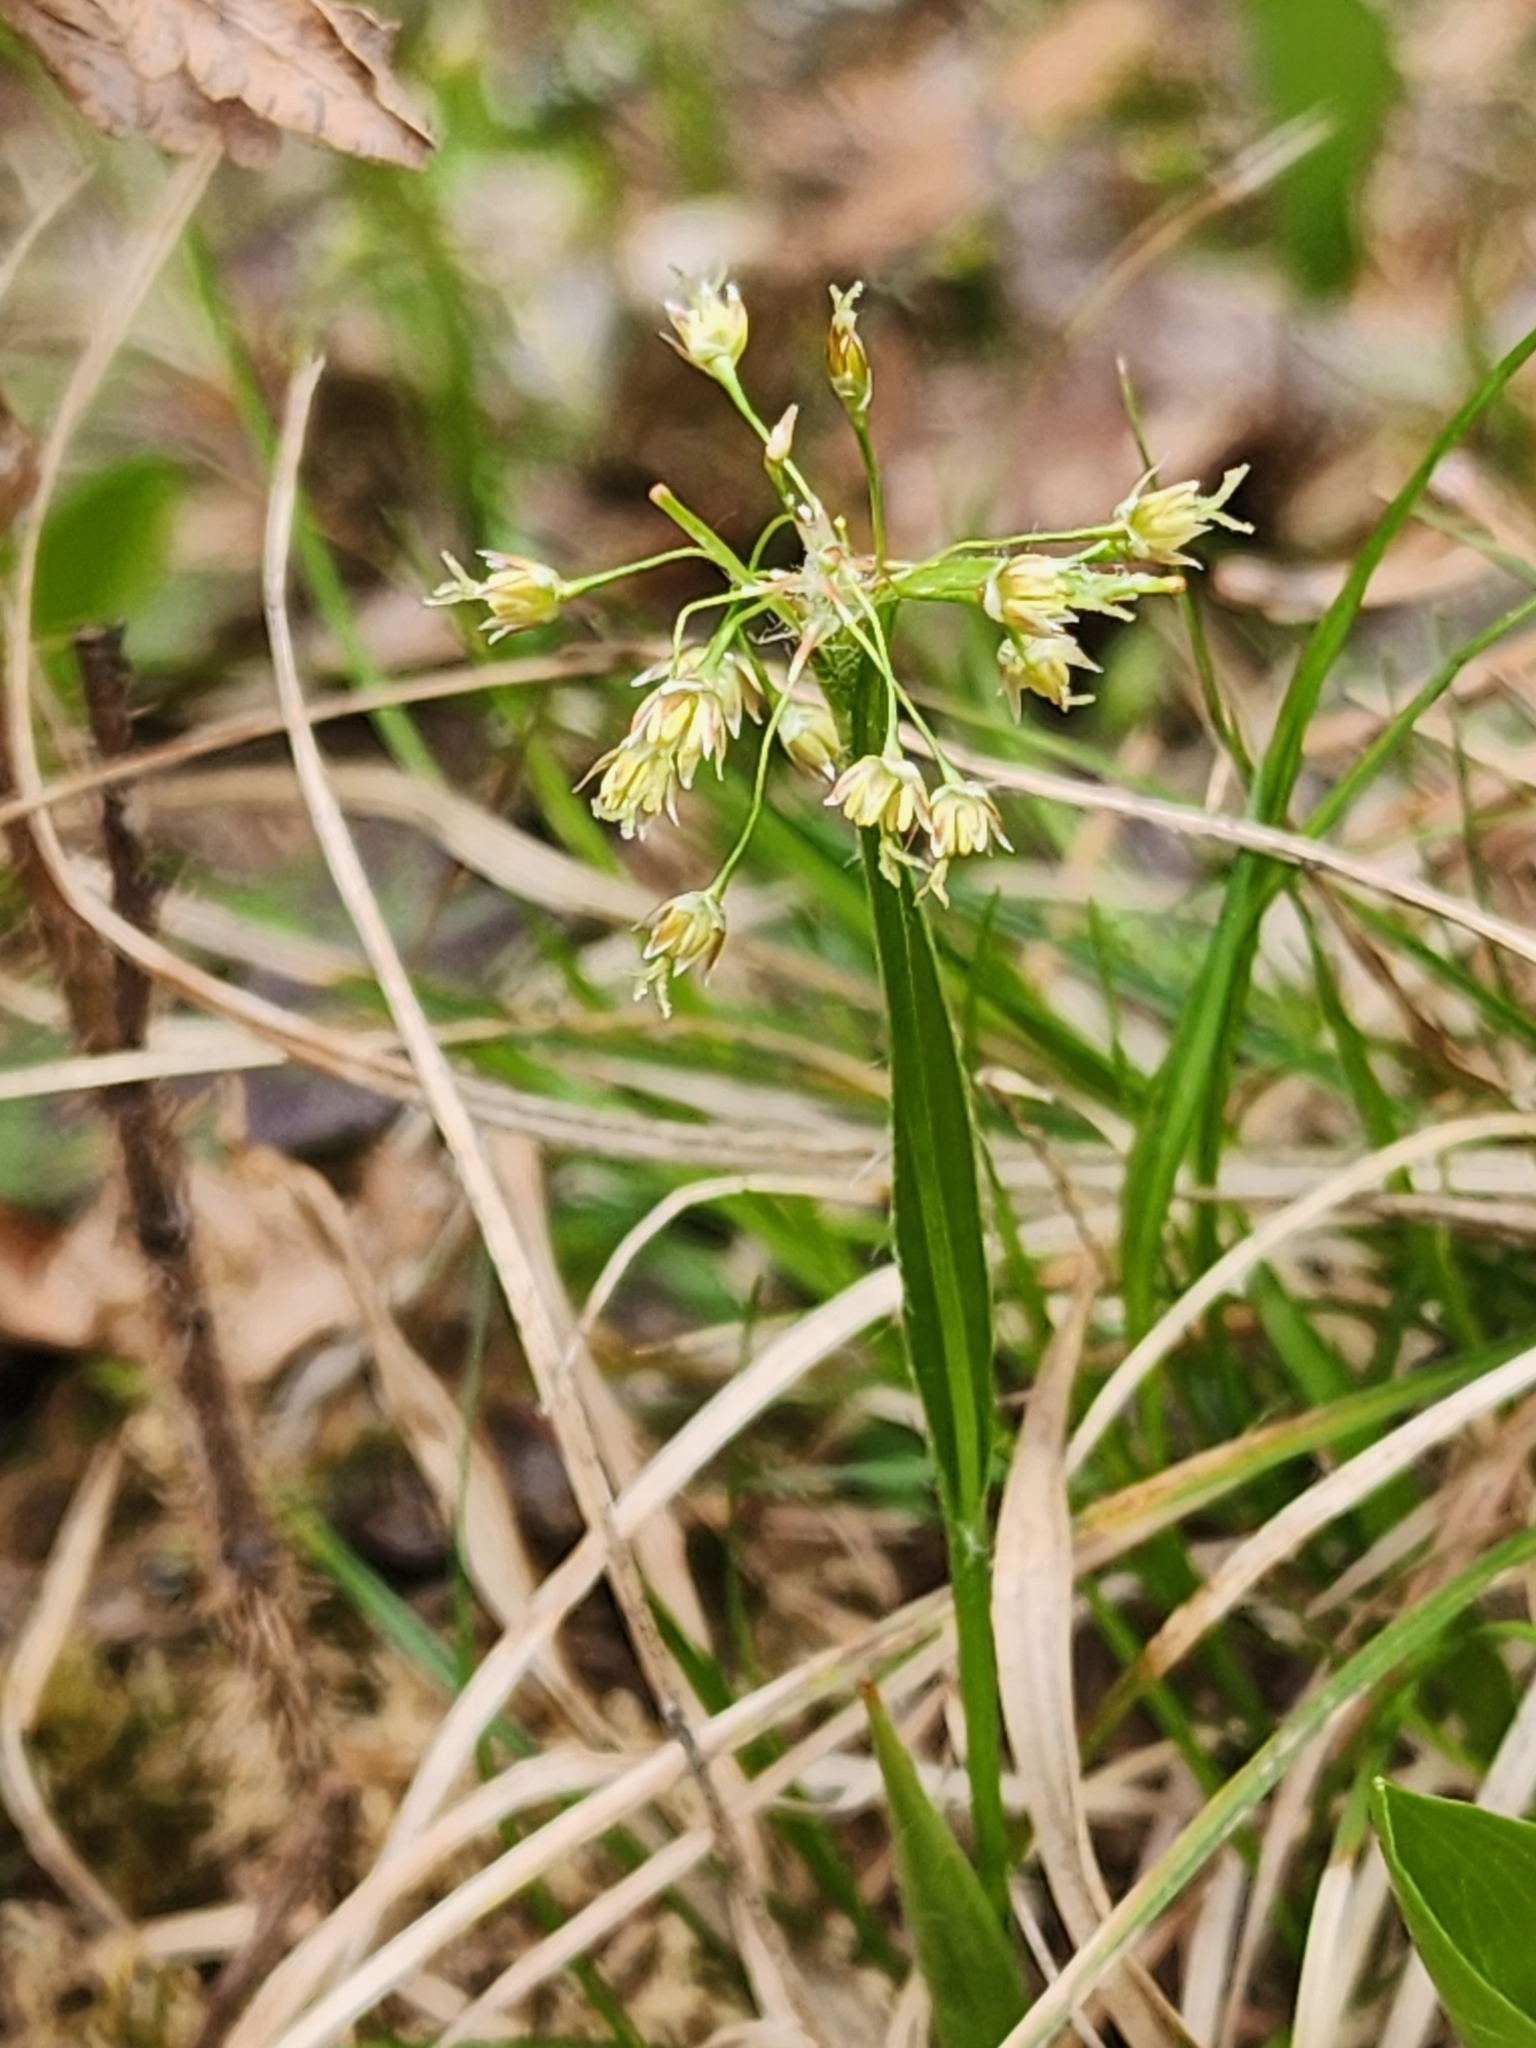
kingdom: Plantae
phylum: Tracheophyta
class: Liliopsida
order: Poales
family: Juncaceae
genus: Luzula
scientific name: Luzula acuminata
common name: Hairy woodrush
